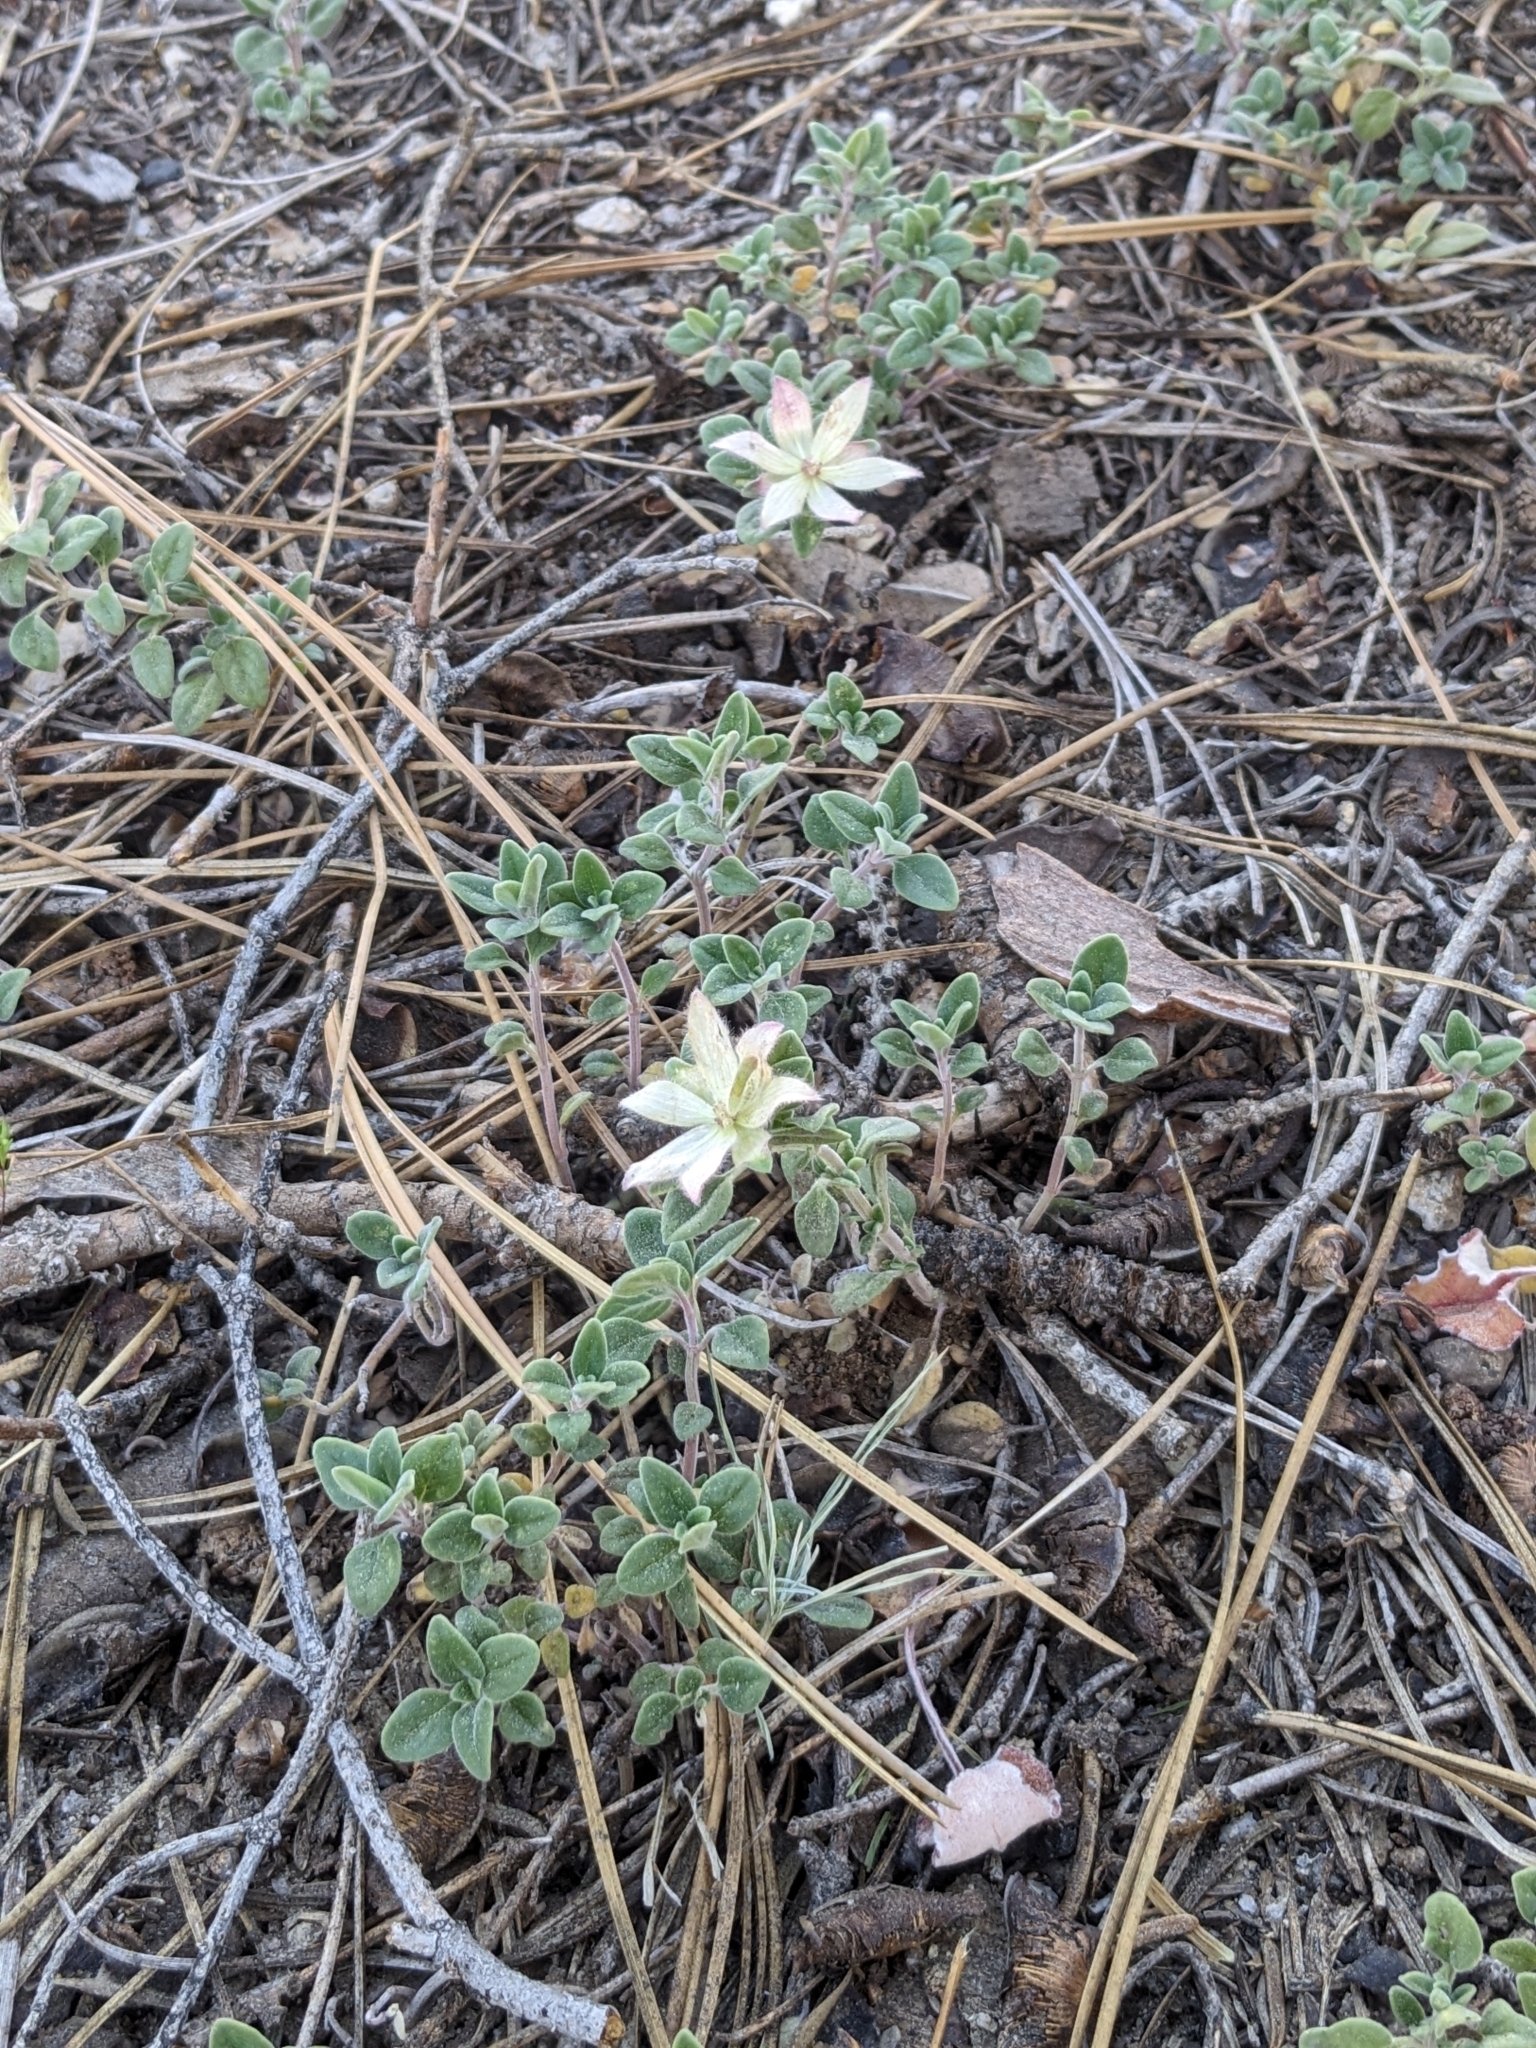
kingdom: Plantae
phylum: Tracheophyta
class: Magnoliopsida
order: Lamiales
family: Lamiaceae
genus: Monardella
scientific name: Monardella nana
